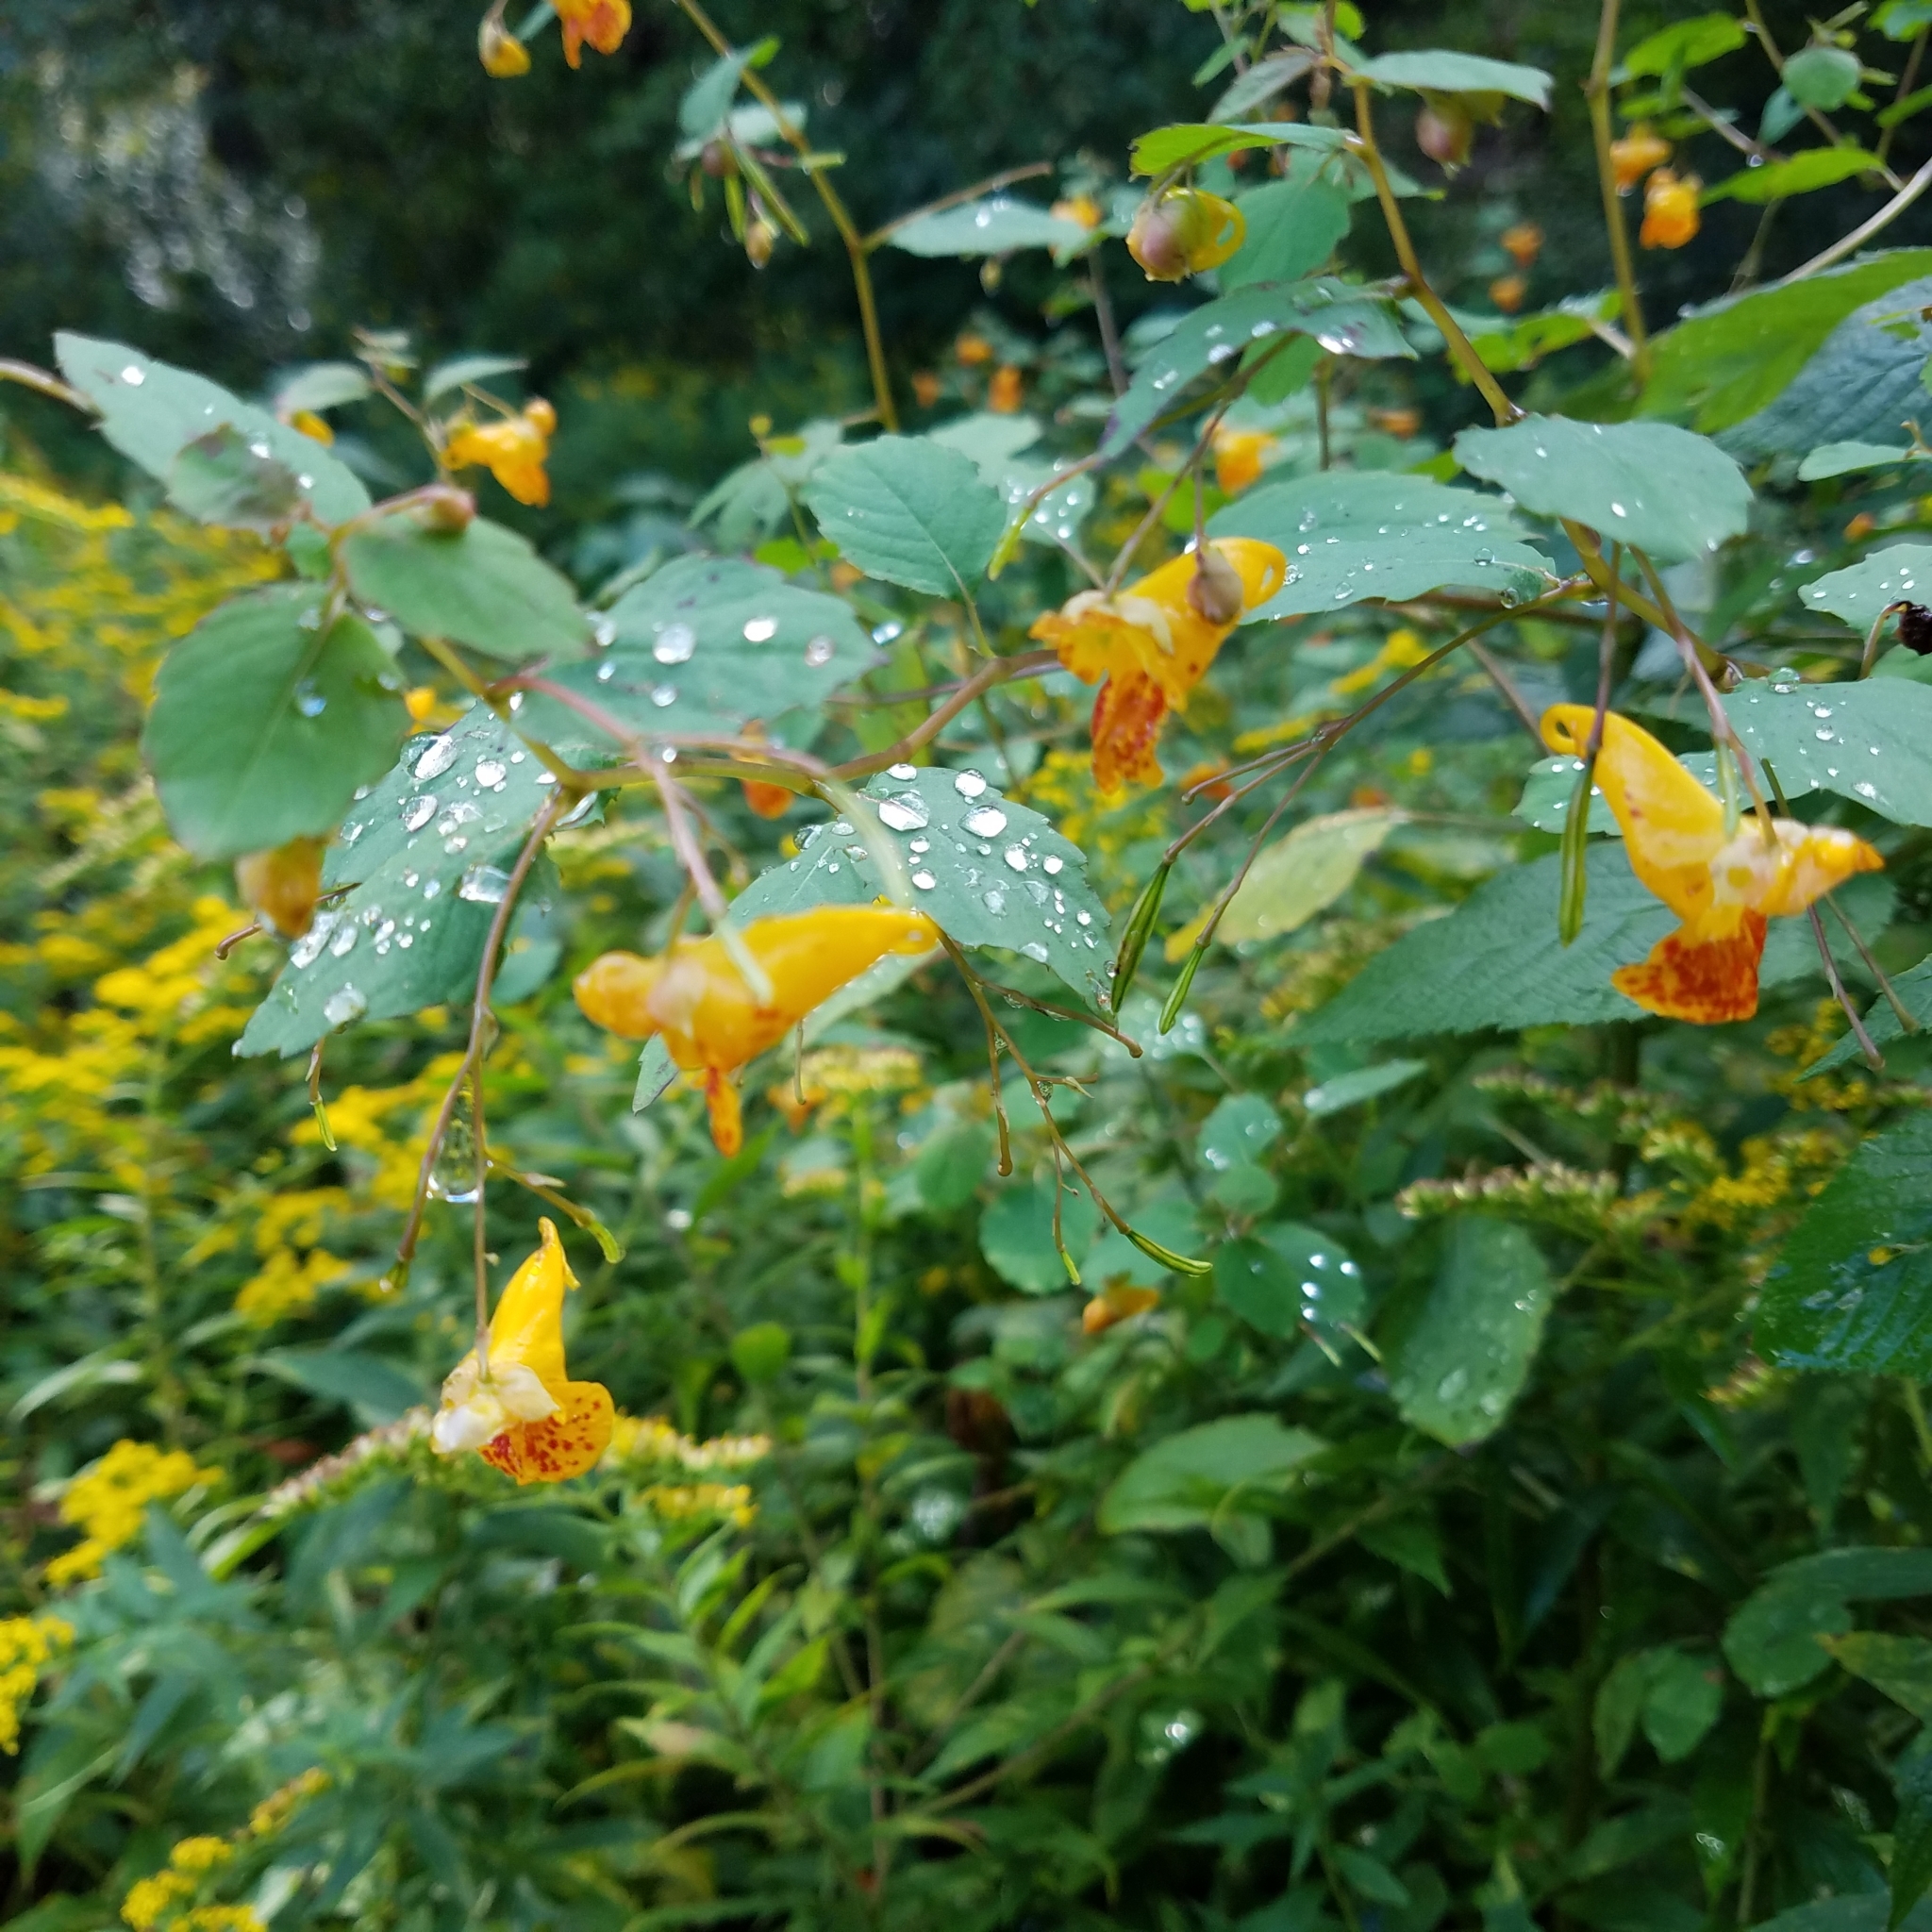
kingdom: Plantae
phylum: Tracheophyta
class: Magnoliopsida
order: Ericales
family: Balsaminaceae
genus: Impatiens
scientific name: Impatiens capensis
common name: Orange balsam
